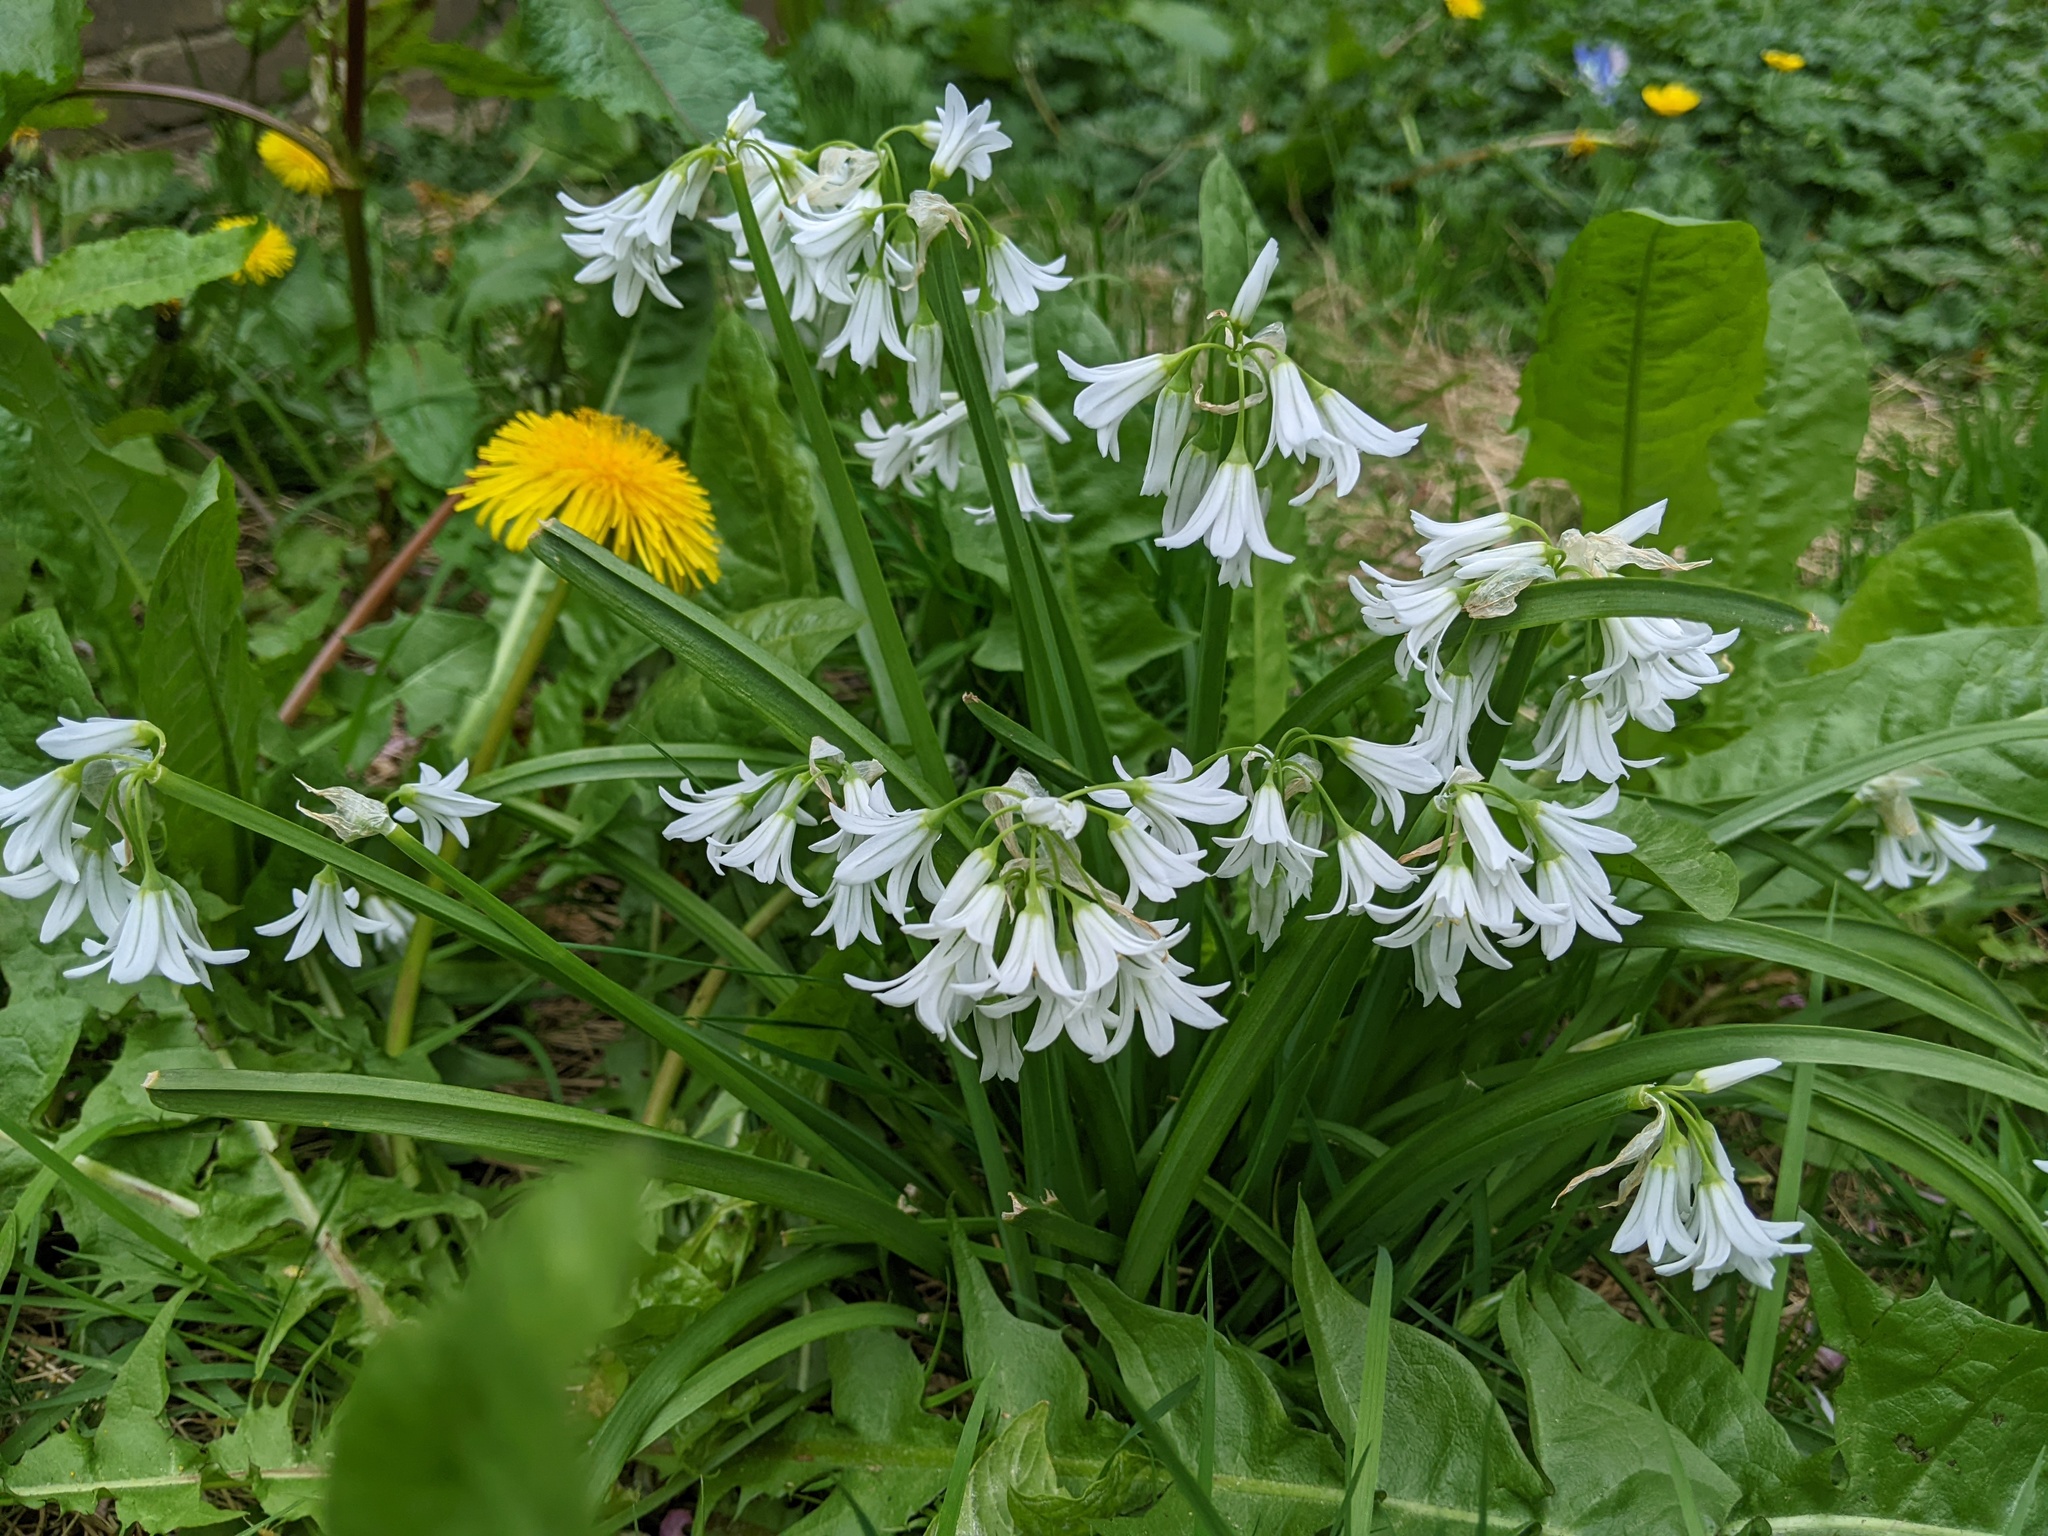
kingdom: Plantae
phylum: Tracheophyta
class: Liliopsida
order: Asparagales
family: Amaryllidaceae
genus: Allium
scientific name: Allium triquetrum
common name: Three-cornered garlic
